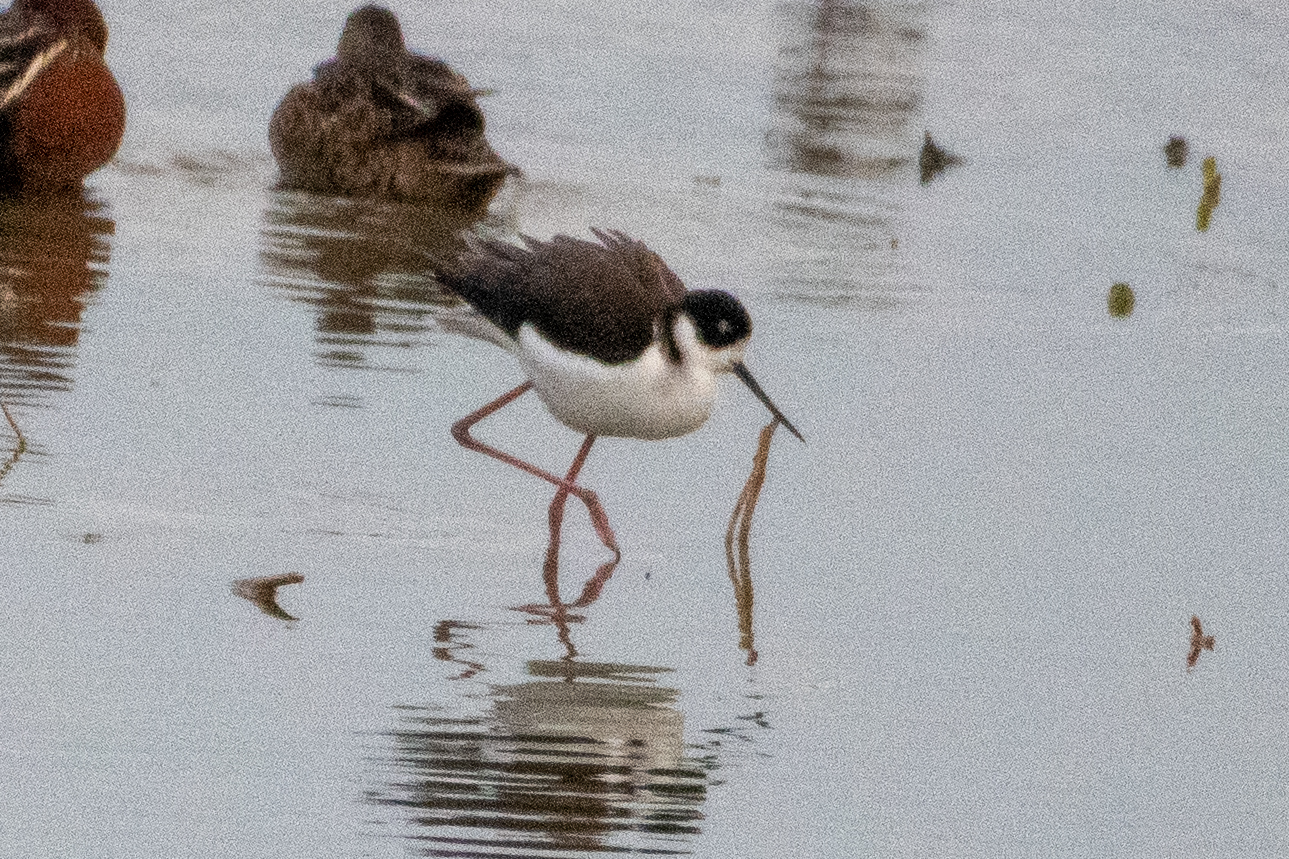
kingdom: Animalia
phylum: Chordata
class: Aves
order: Charadriiformes
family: Recurvirostridae
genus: Himantopus
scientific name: Himantopus mexicanus
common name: Black-necked stilt
